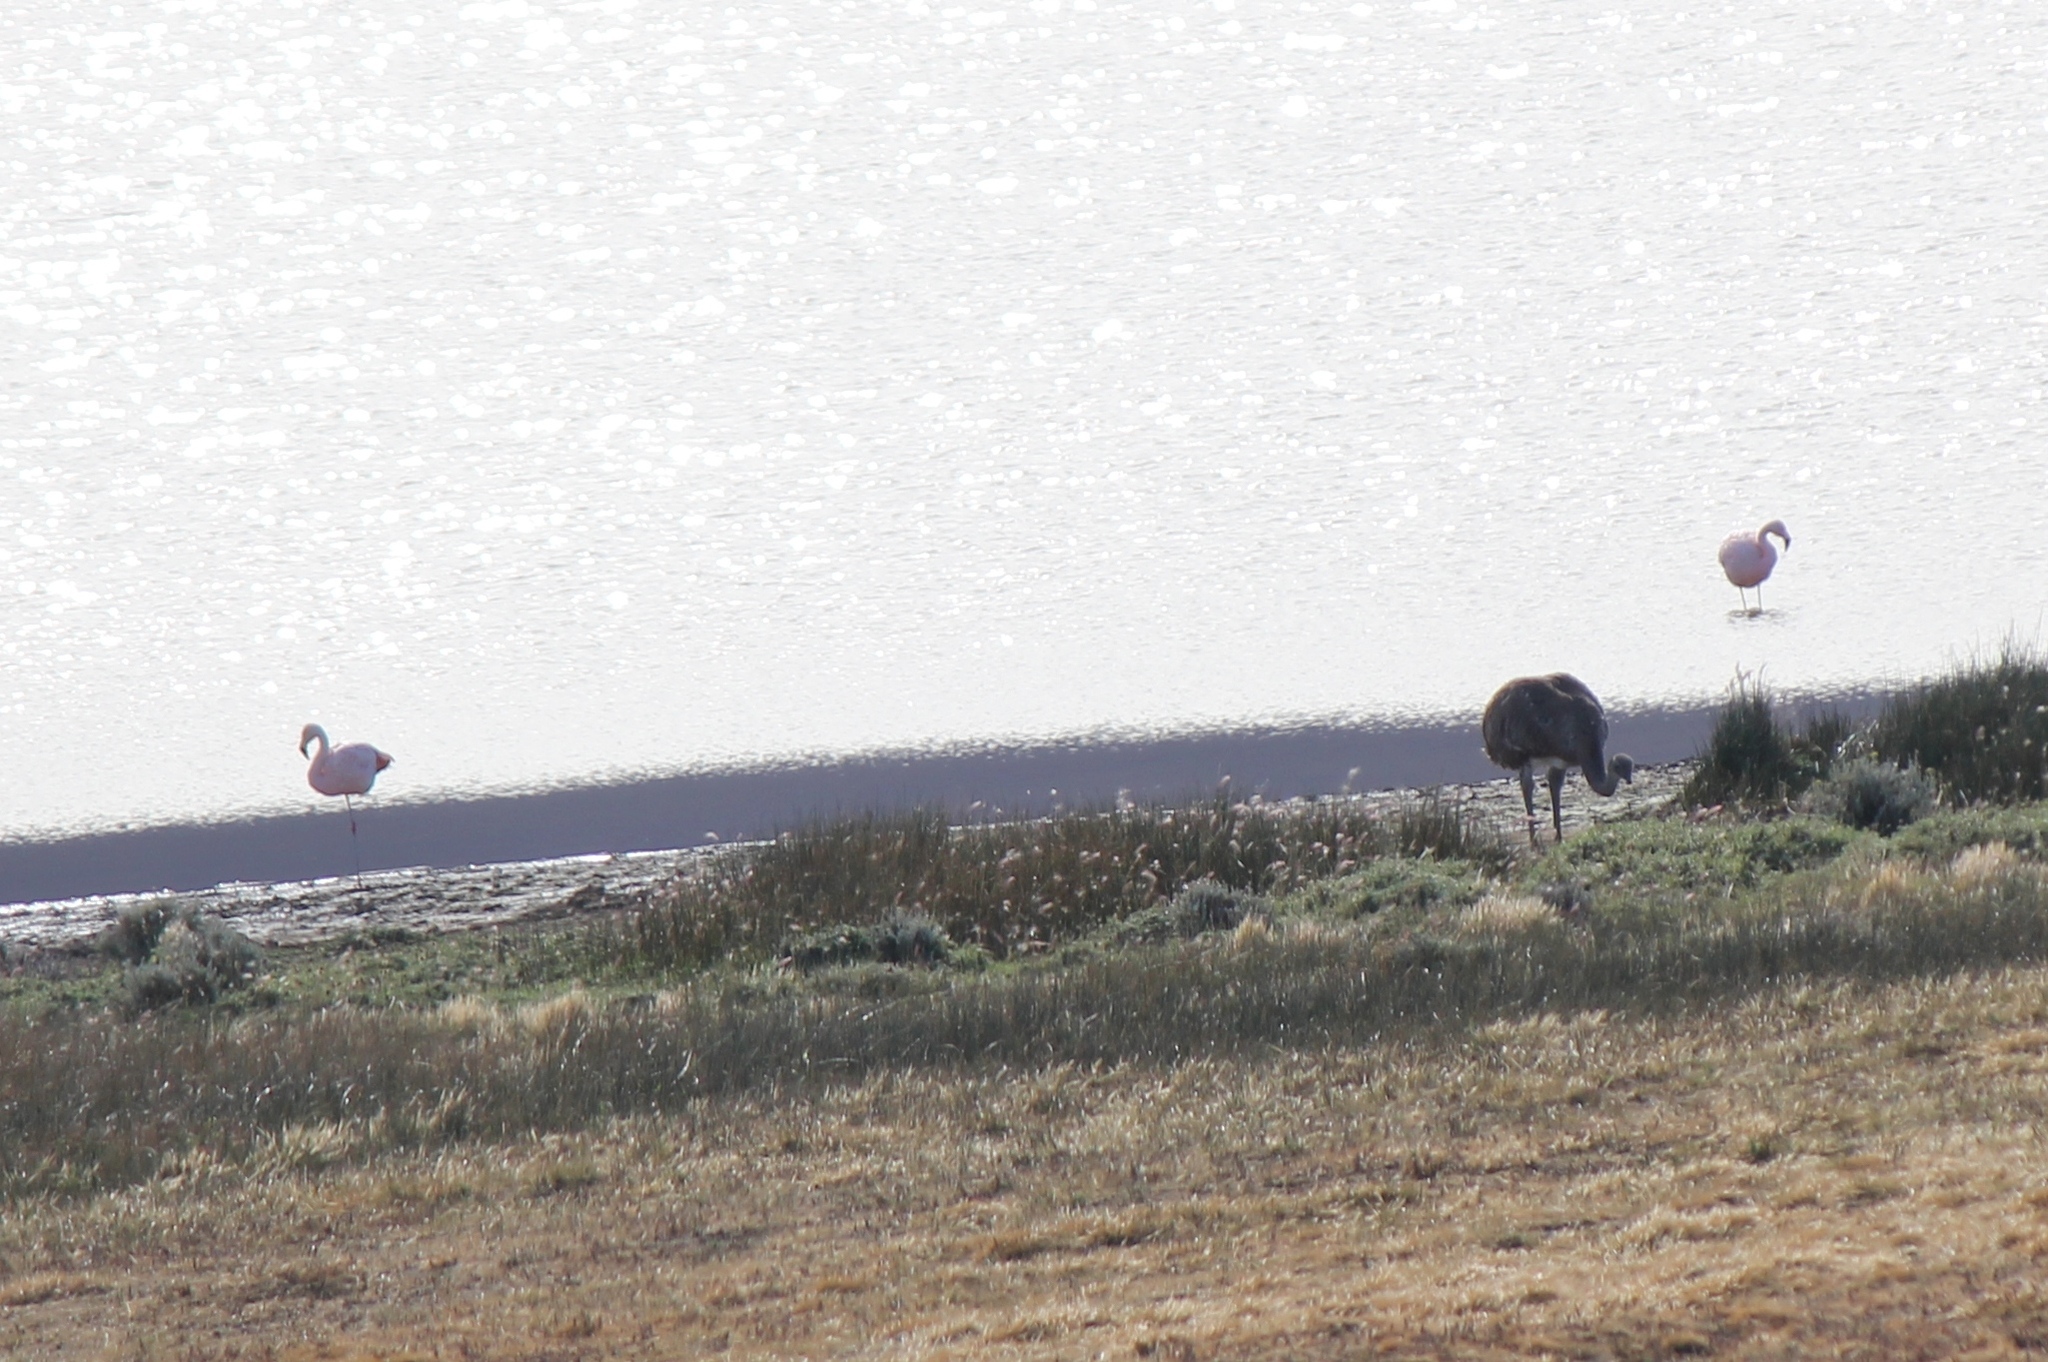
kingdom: Animalia
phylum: Chordata
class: Aves
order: Phoenicopteriformes
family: Phoenicopteridae
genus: Phoenicopterus
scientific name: Phoenicopterus chilensis
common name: Chilean flamingo
